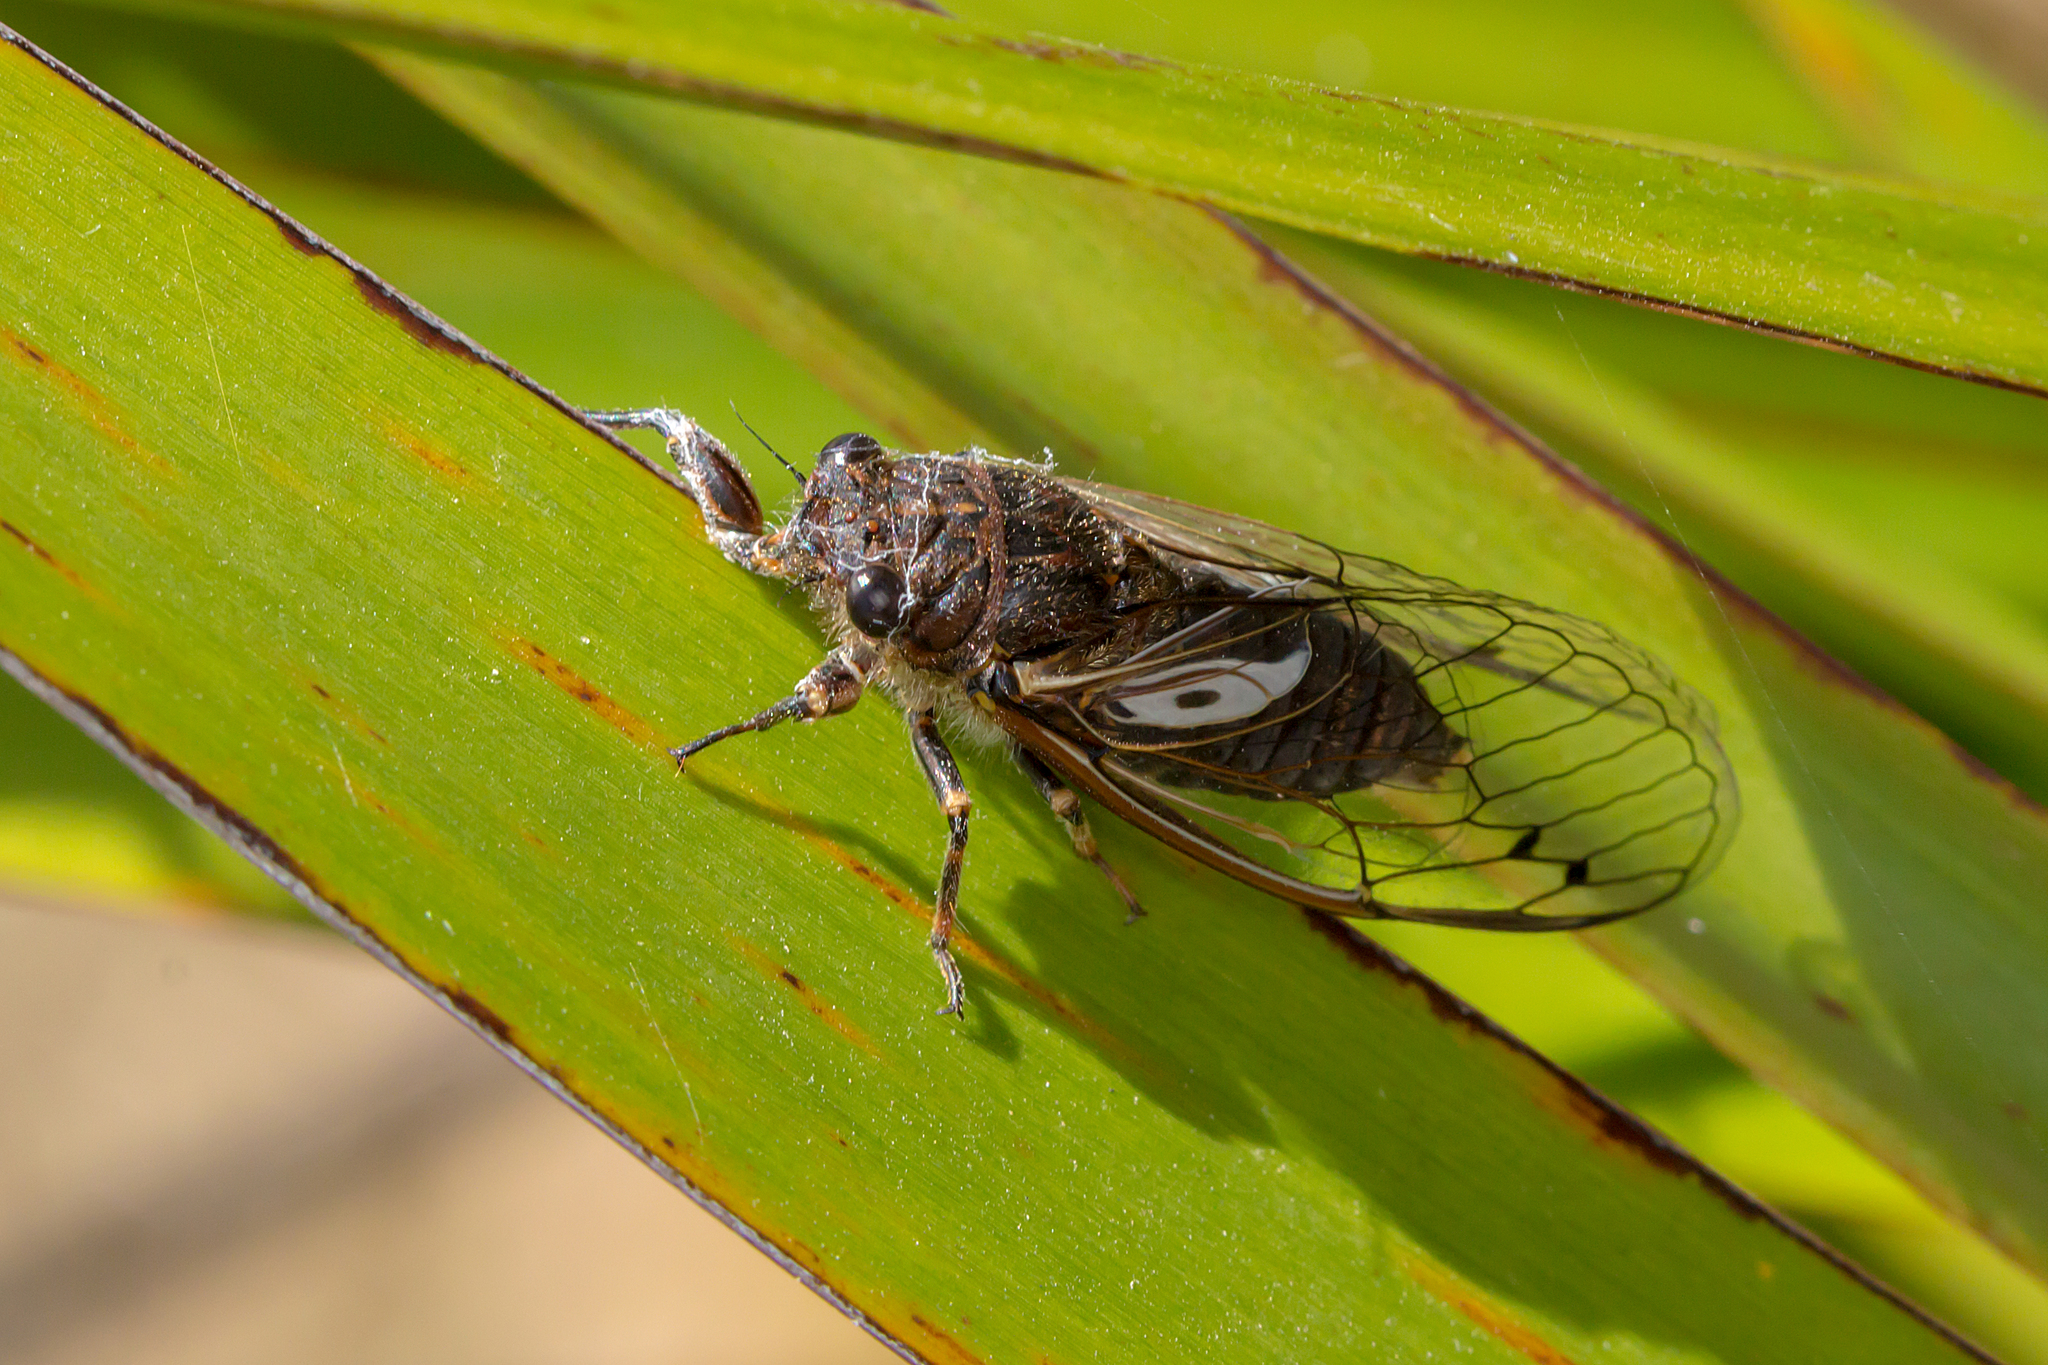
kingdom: Animalia
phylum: Arthropoda
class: Insecta
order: Hemiptera
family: Cicadidae
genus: Gelidea
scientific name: Gelidea torrida
